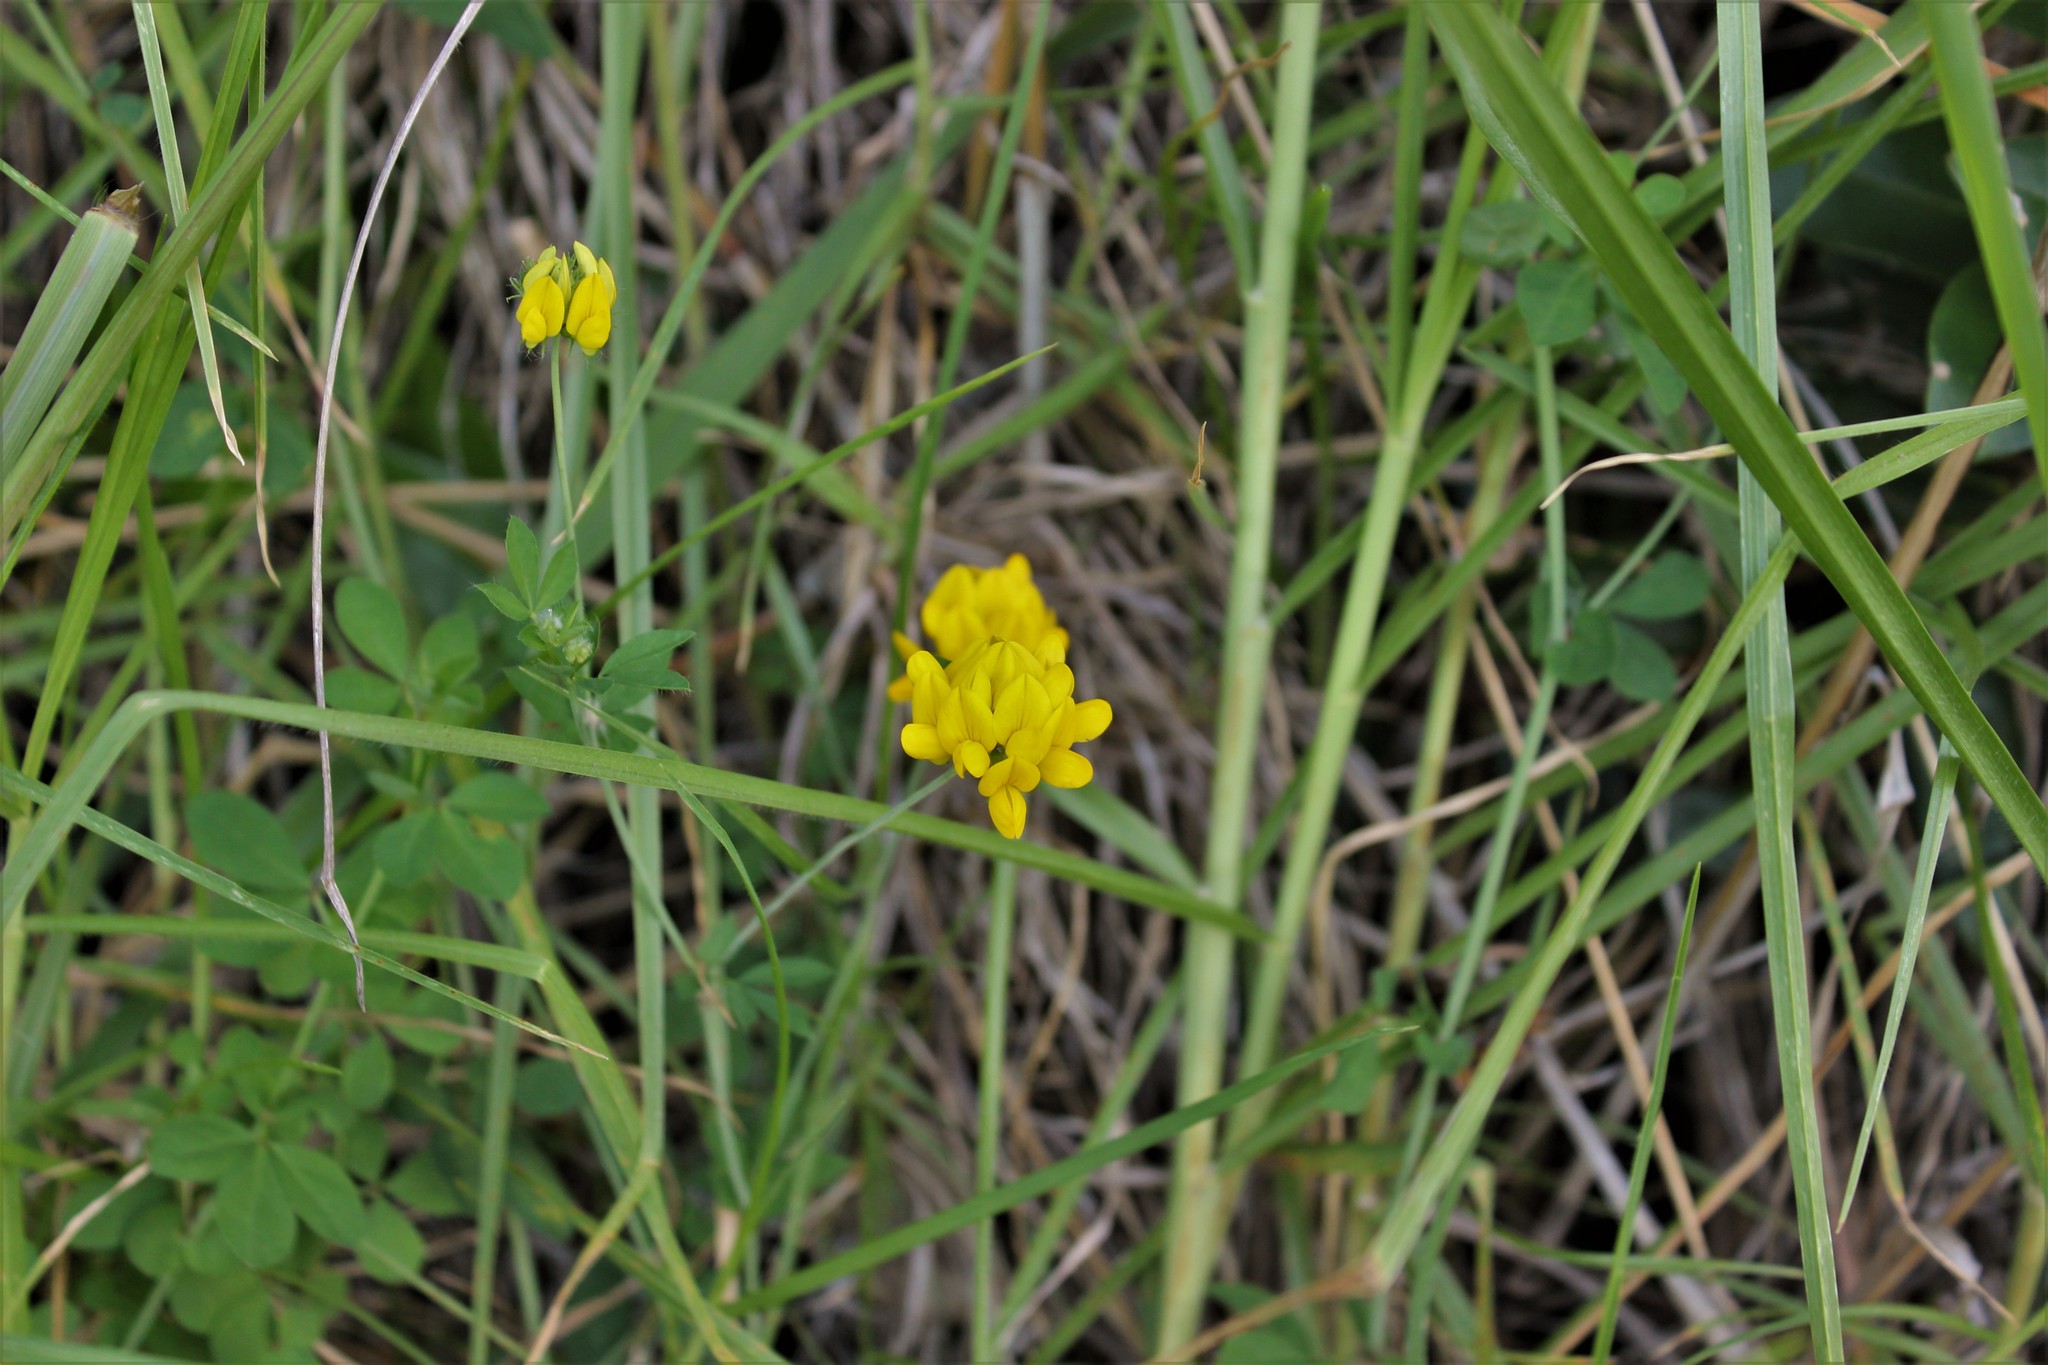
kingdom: Plantae
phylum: Tracheophyta
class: Magnoliopsida
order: Fabales
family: Fabaceae
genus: Lotus
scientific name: Lotus pedunculatus
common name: Greater birdsfoot-trefoil
